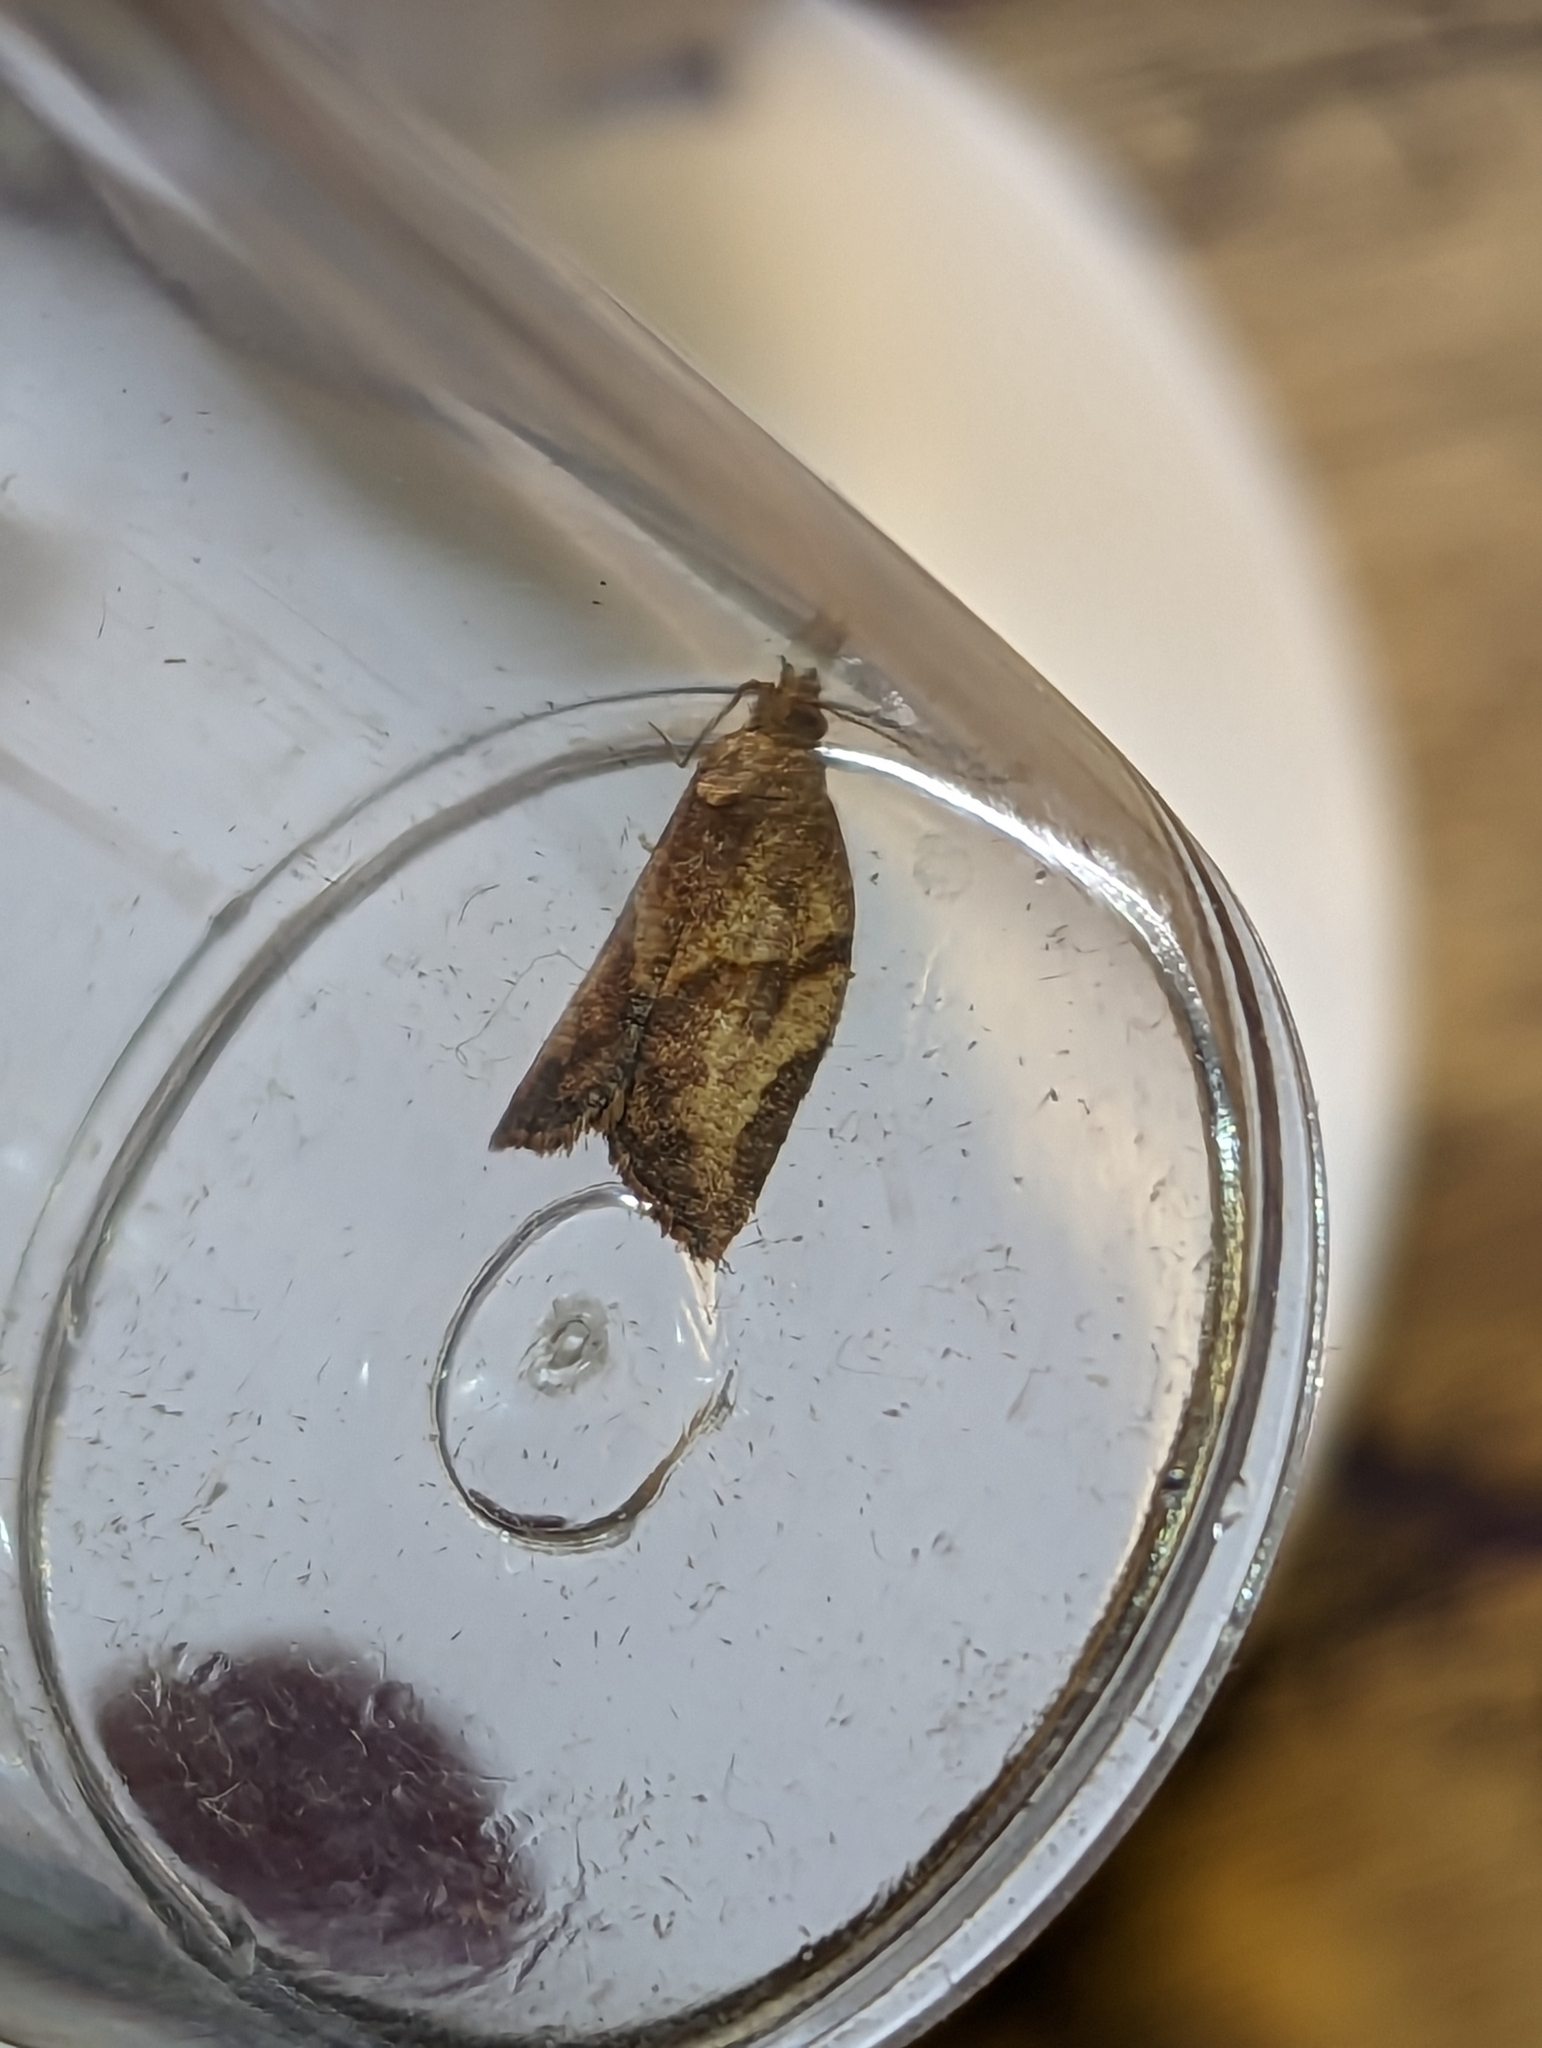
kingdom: Animalia
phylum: Arthropoda
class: Insecta
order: Lepidoptera
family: Tortricidae
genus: Epiphyas
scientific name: Epiphyas postvittana
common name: Light brown apple moth
